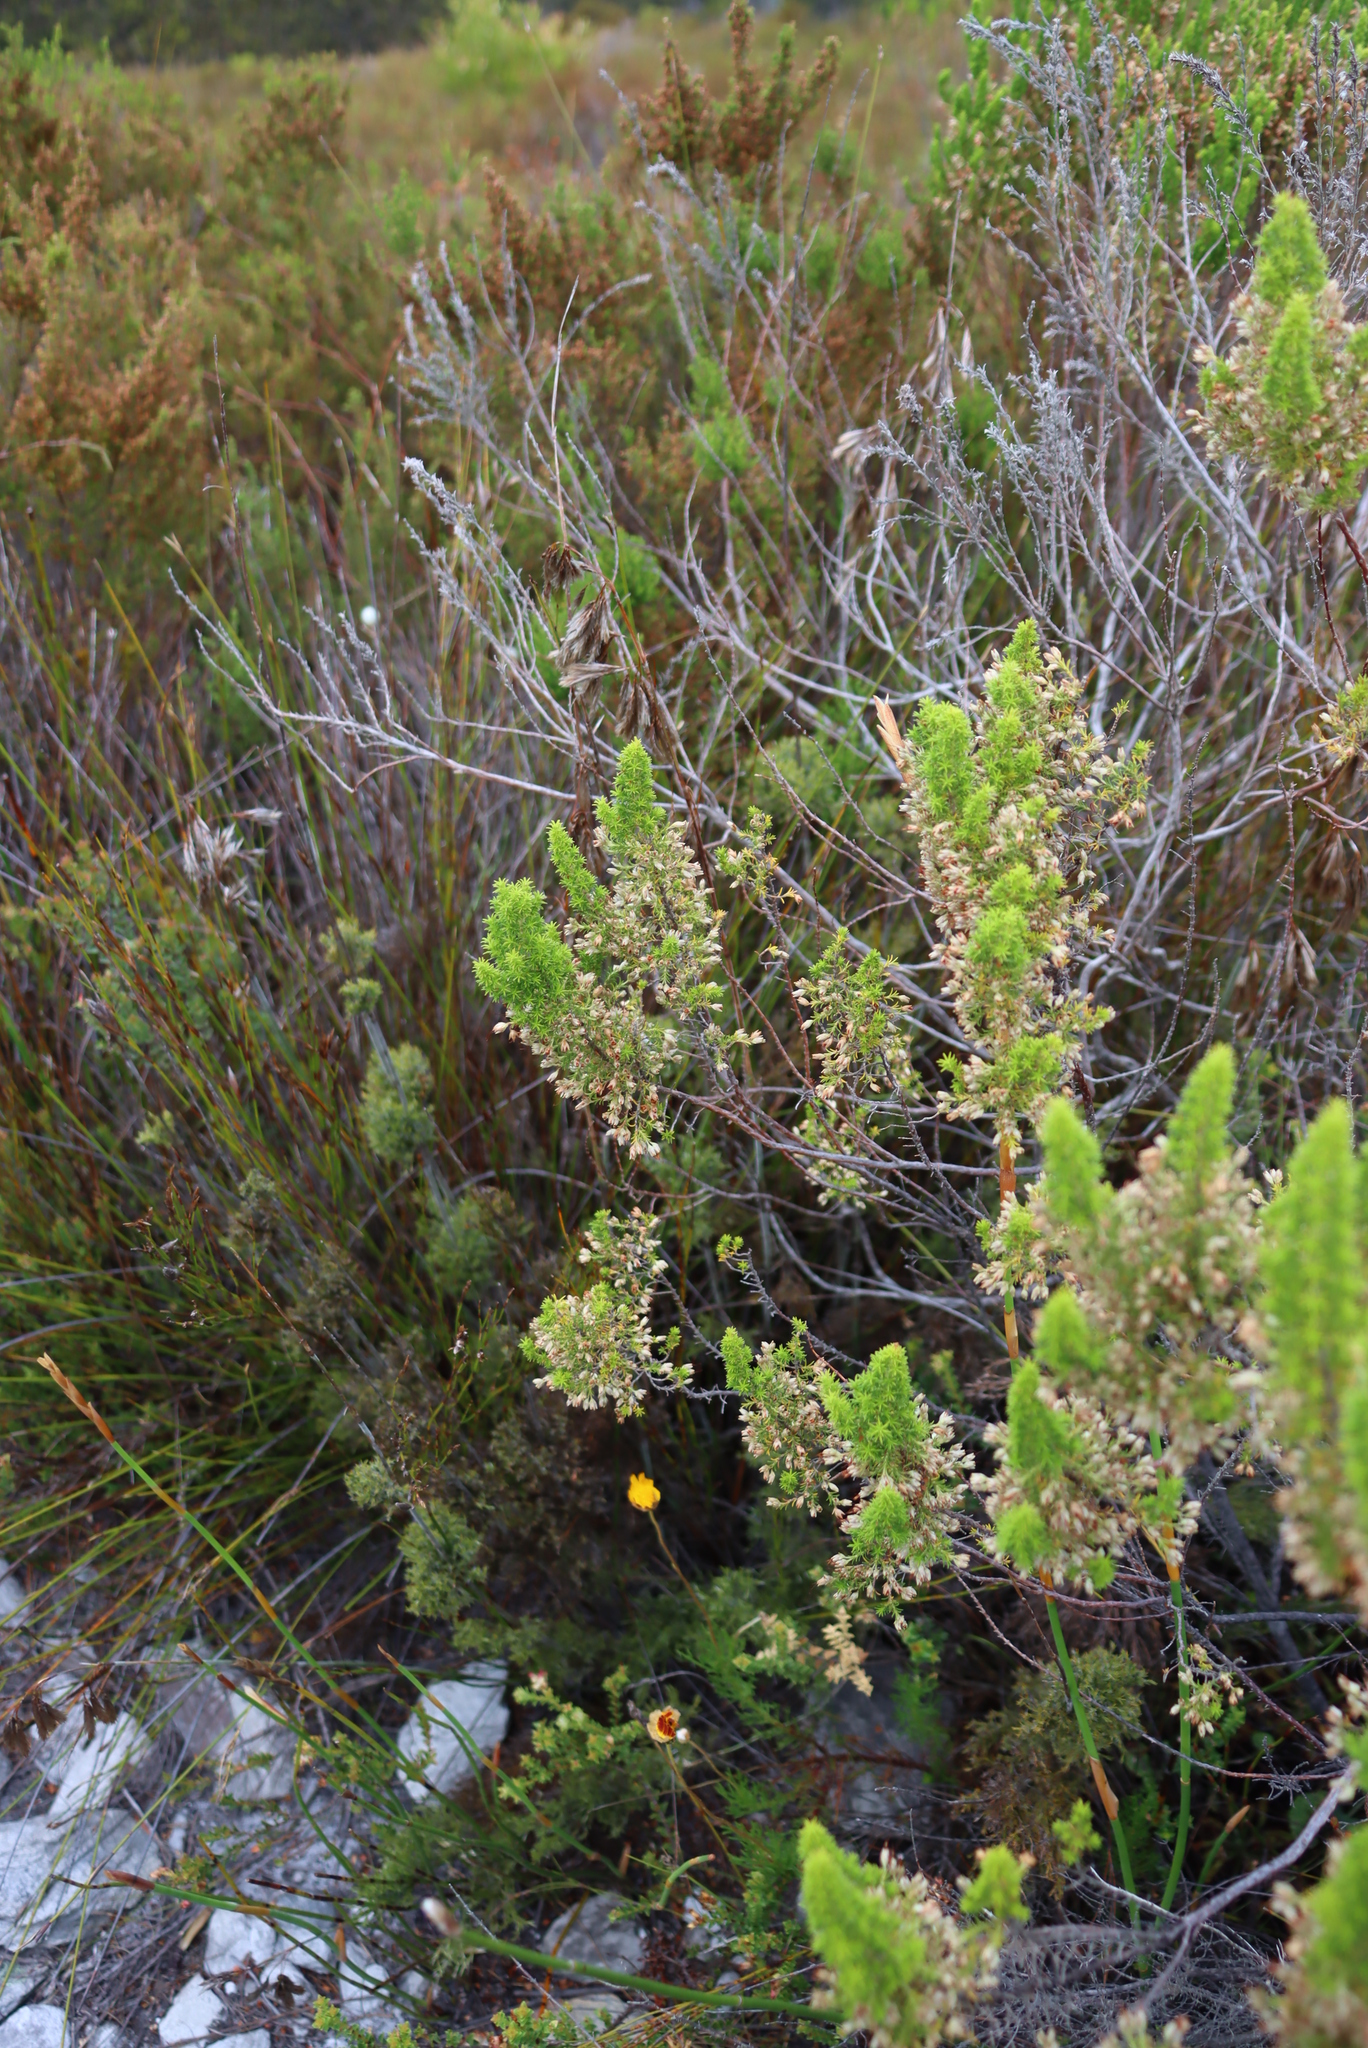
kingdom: Plantae
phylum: Tracheophyta
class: Magnoliopsida
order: Ericales
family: Ericaceae
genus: Erica
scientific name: Erica penicilliformis
